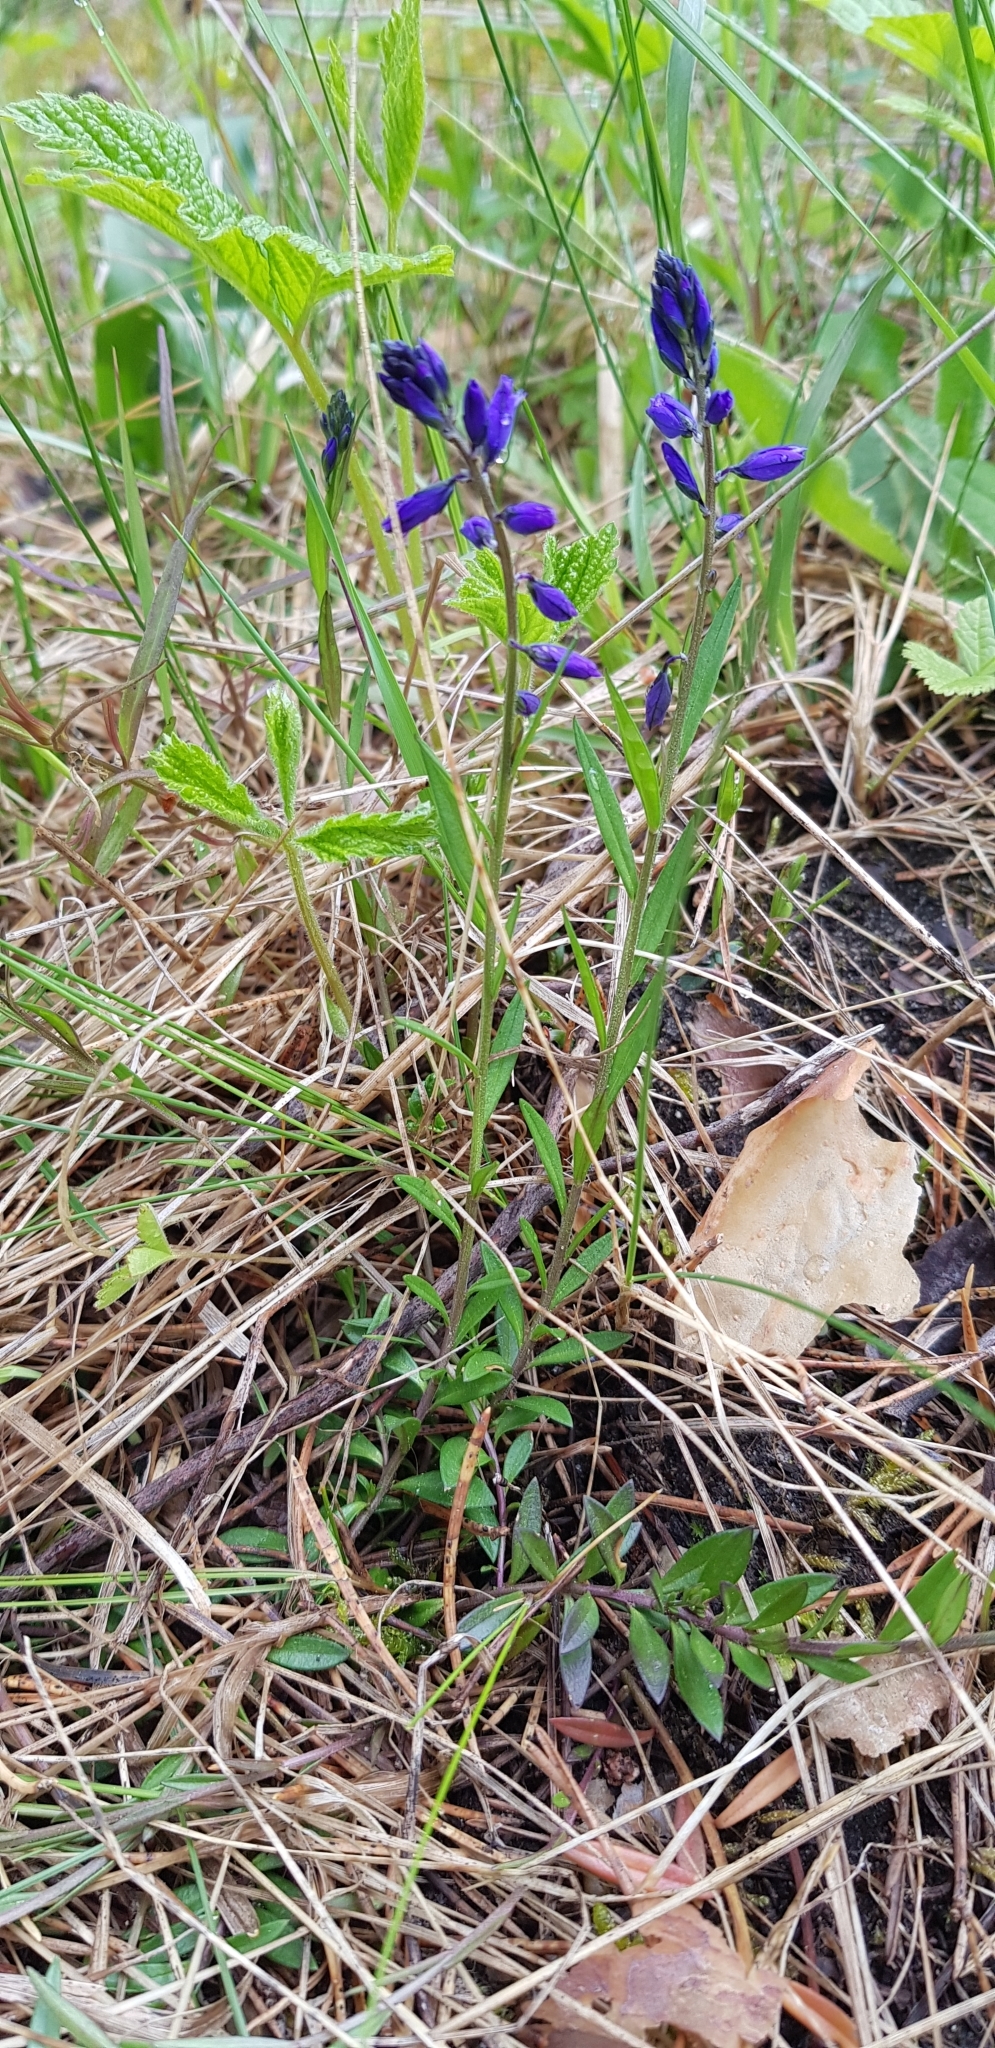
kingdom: Plantae
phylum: Tracheophyta
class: Magnoliopsida
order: Fabales
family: Polygalaceae
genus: Polygala
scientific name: Polygala vulgaris
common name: Common milkwort
